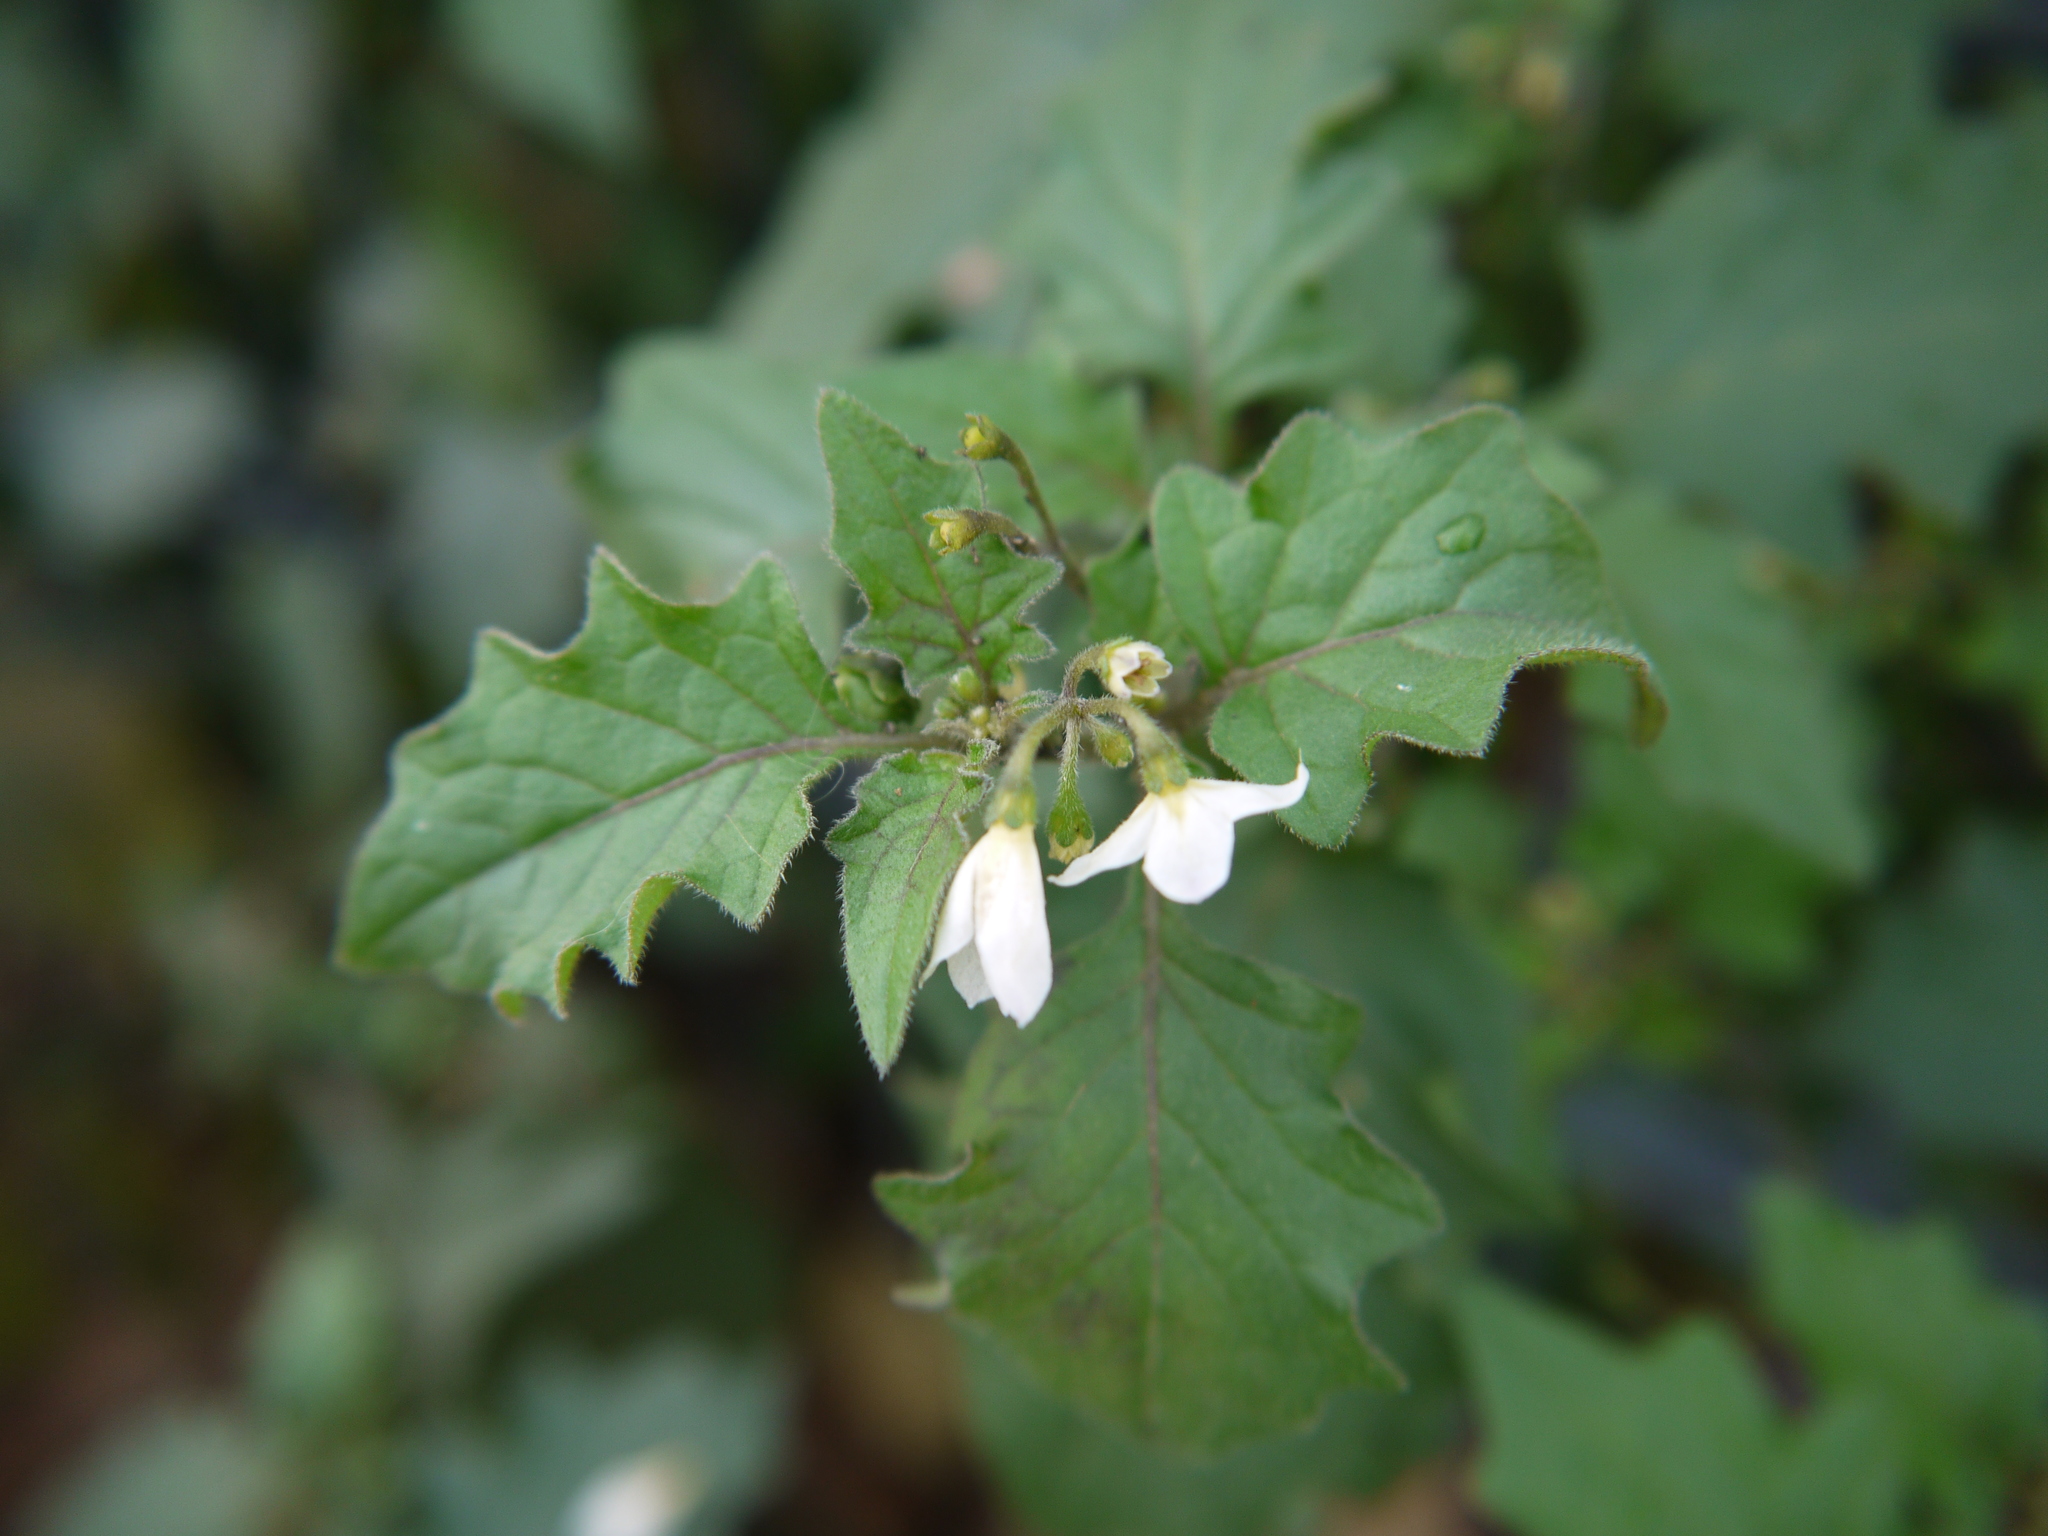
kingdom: Plantae
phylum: Tracheophyta
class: Magnoliopsida
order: Solanales
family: Solanaceae
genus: Solanum
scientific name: Solanum nigrum
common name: Black nightshade
